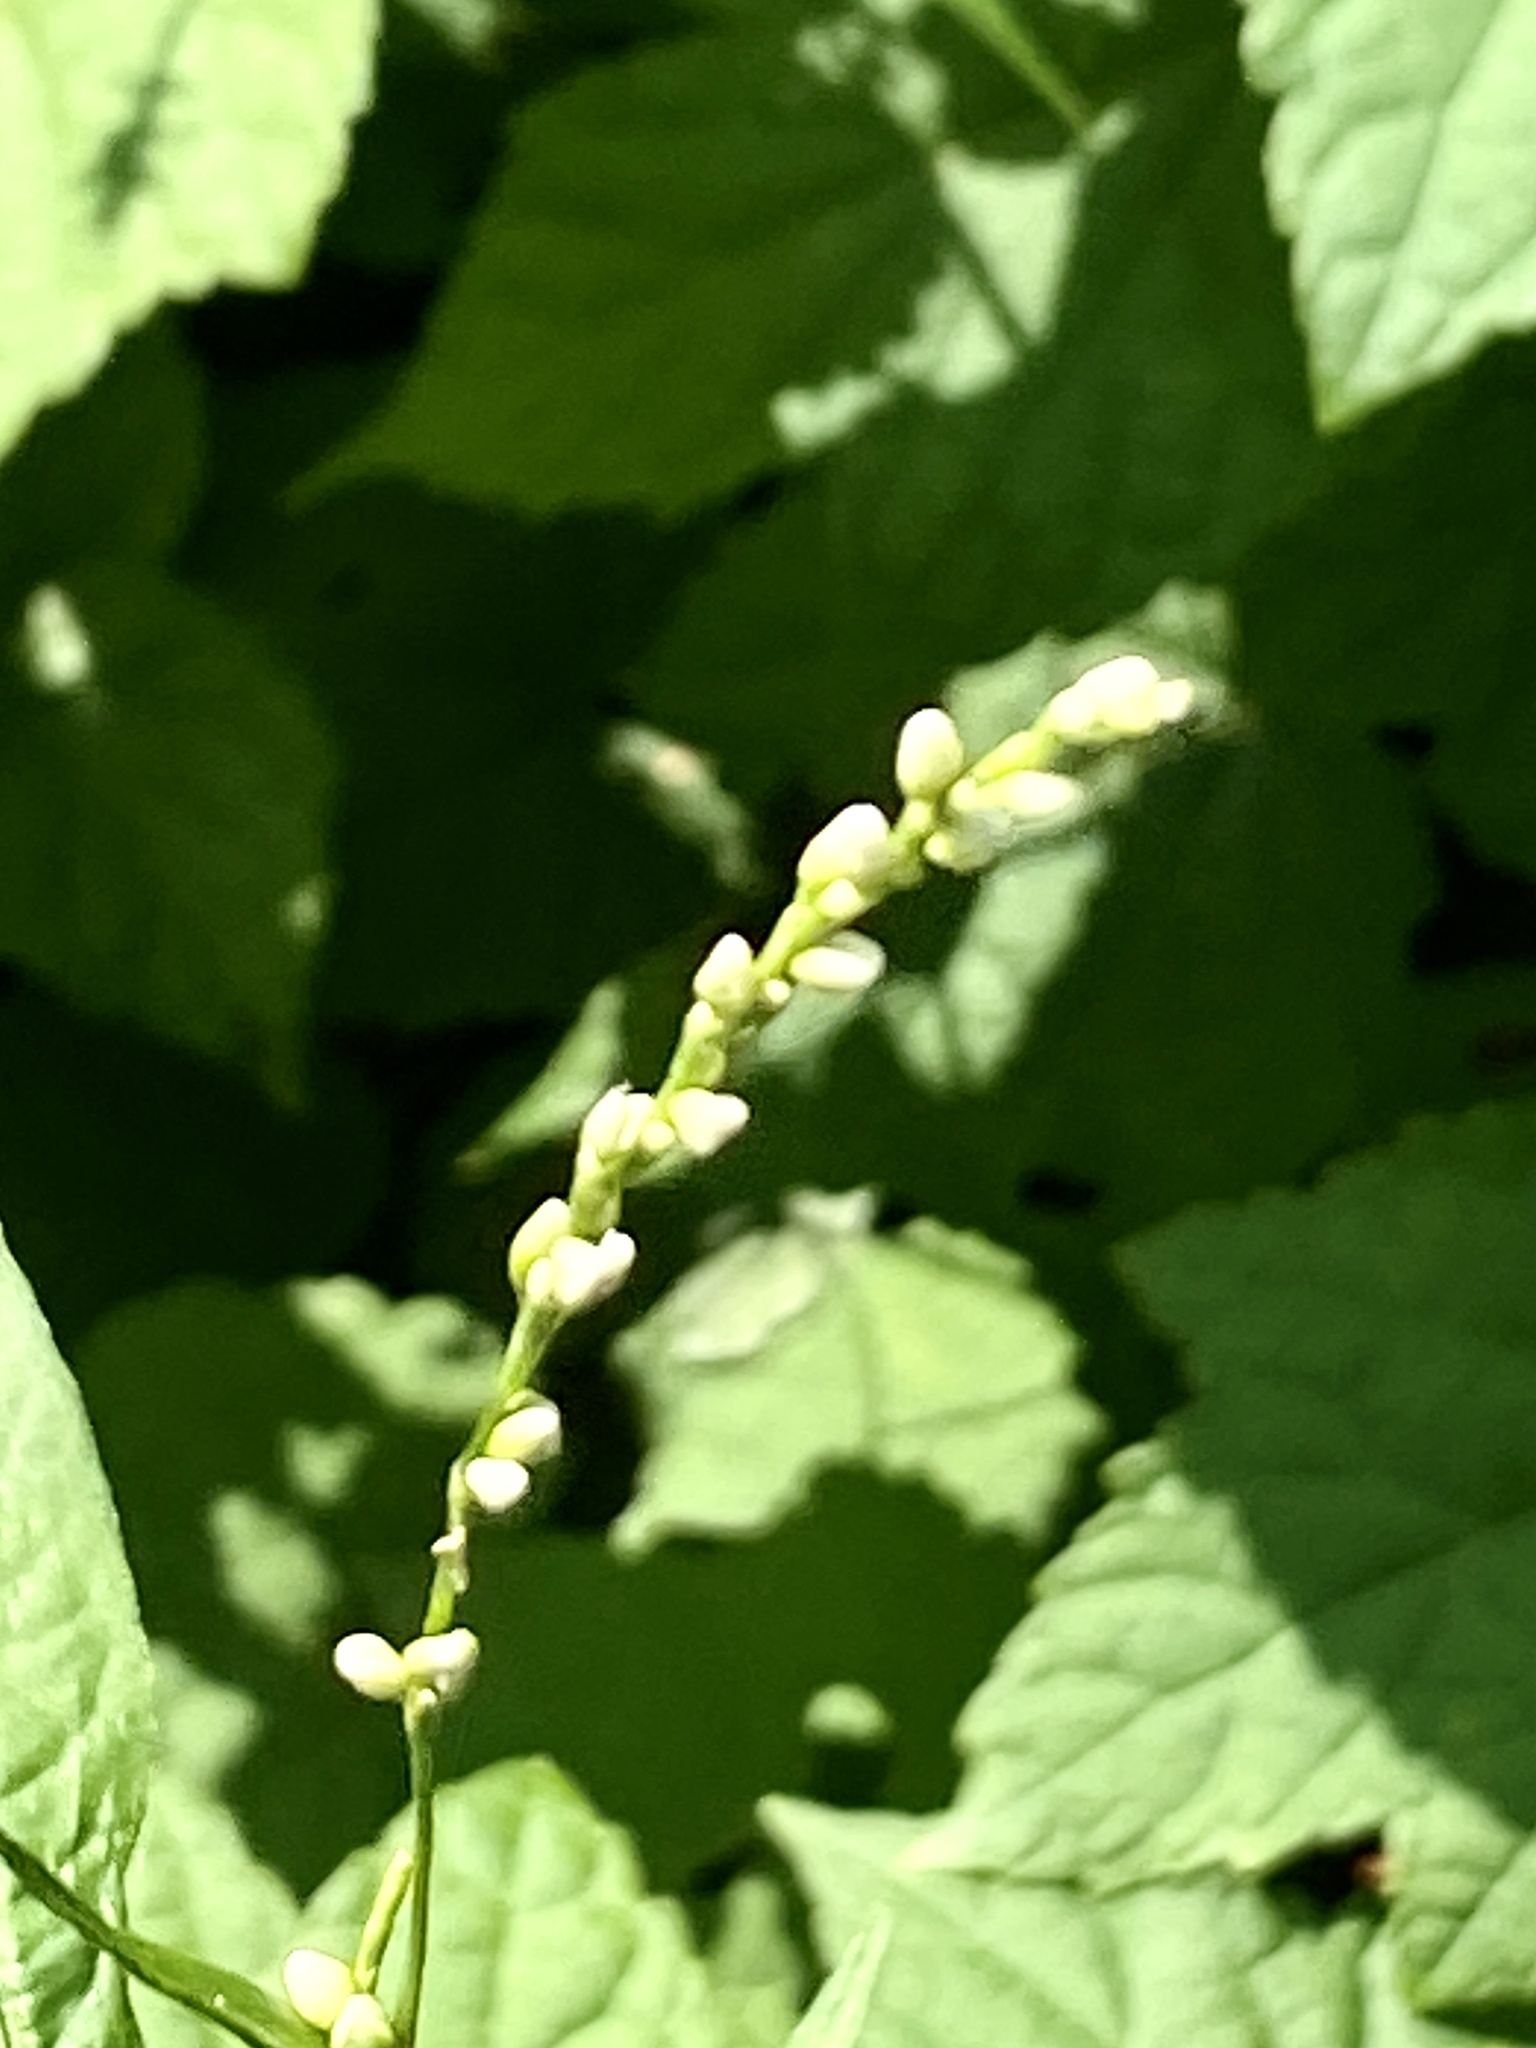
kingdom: Plantae
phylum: Tracheophyta
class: Magnoliopsida
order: Caryophyllales
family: Polygonaceae
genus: Persicaria
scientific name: Persicaria punctata
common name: Dotted smartweed
